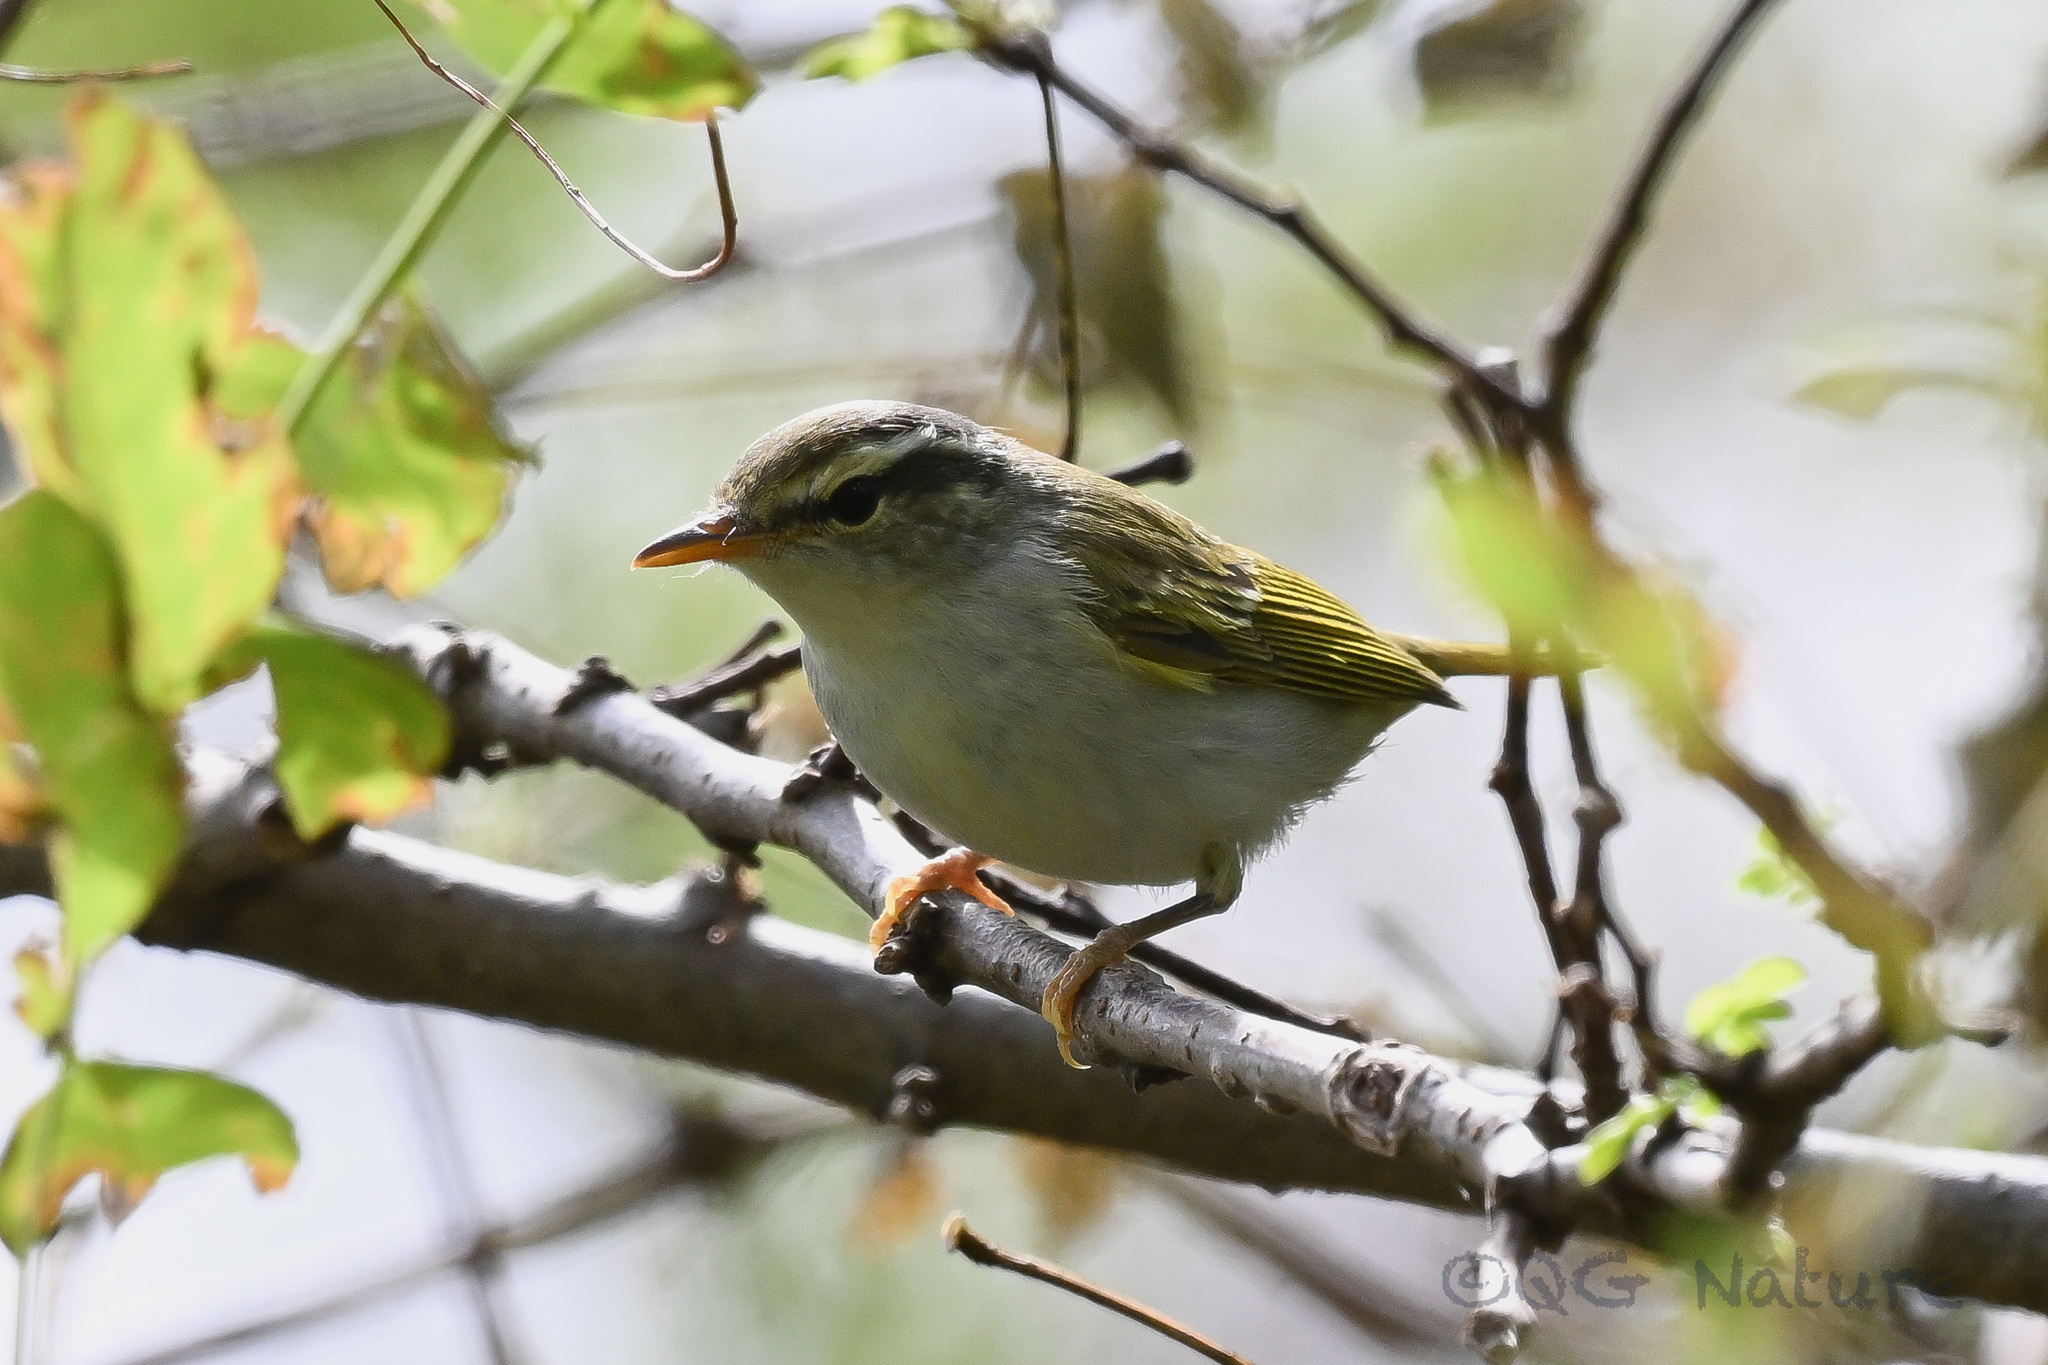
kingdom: Animalia
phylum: Chordata
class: Aves
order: Passeriformes
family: Phylloscopidae
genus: Phylloscopus
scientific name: Phylloscopus coronatus
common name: Eastern crowned warbler
